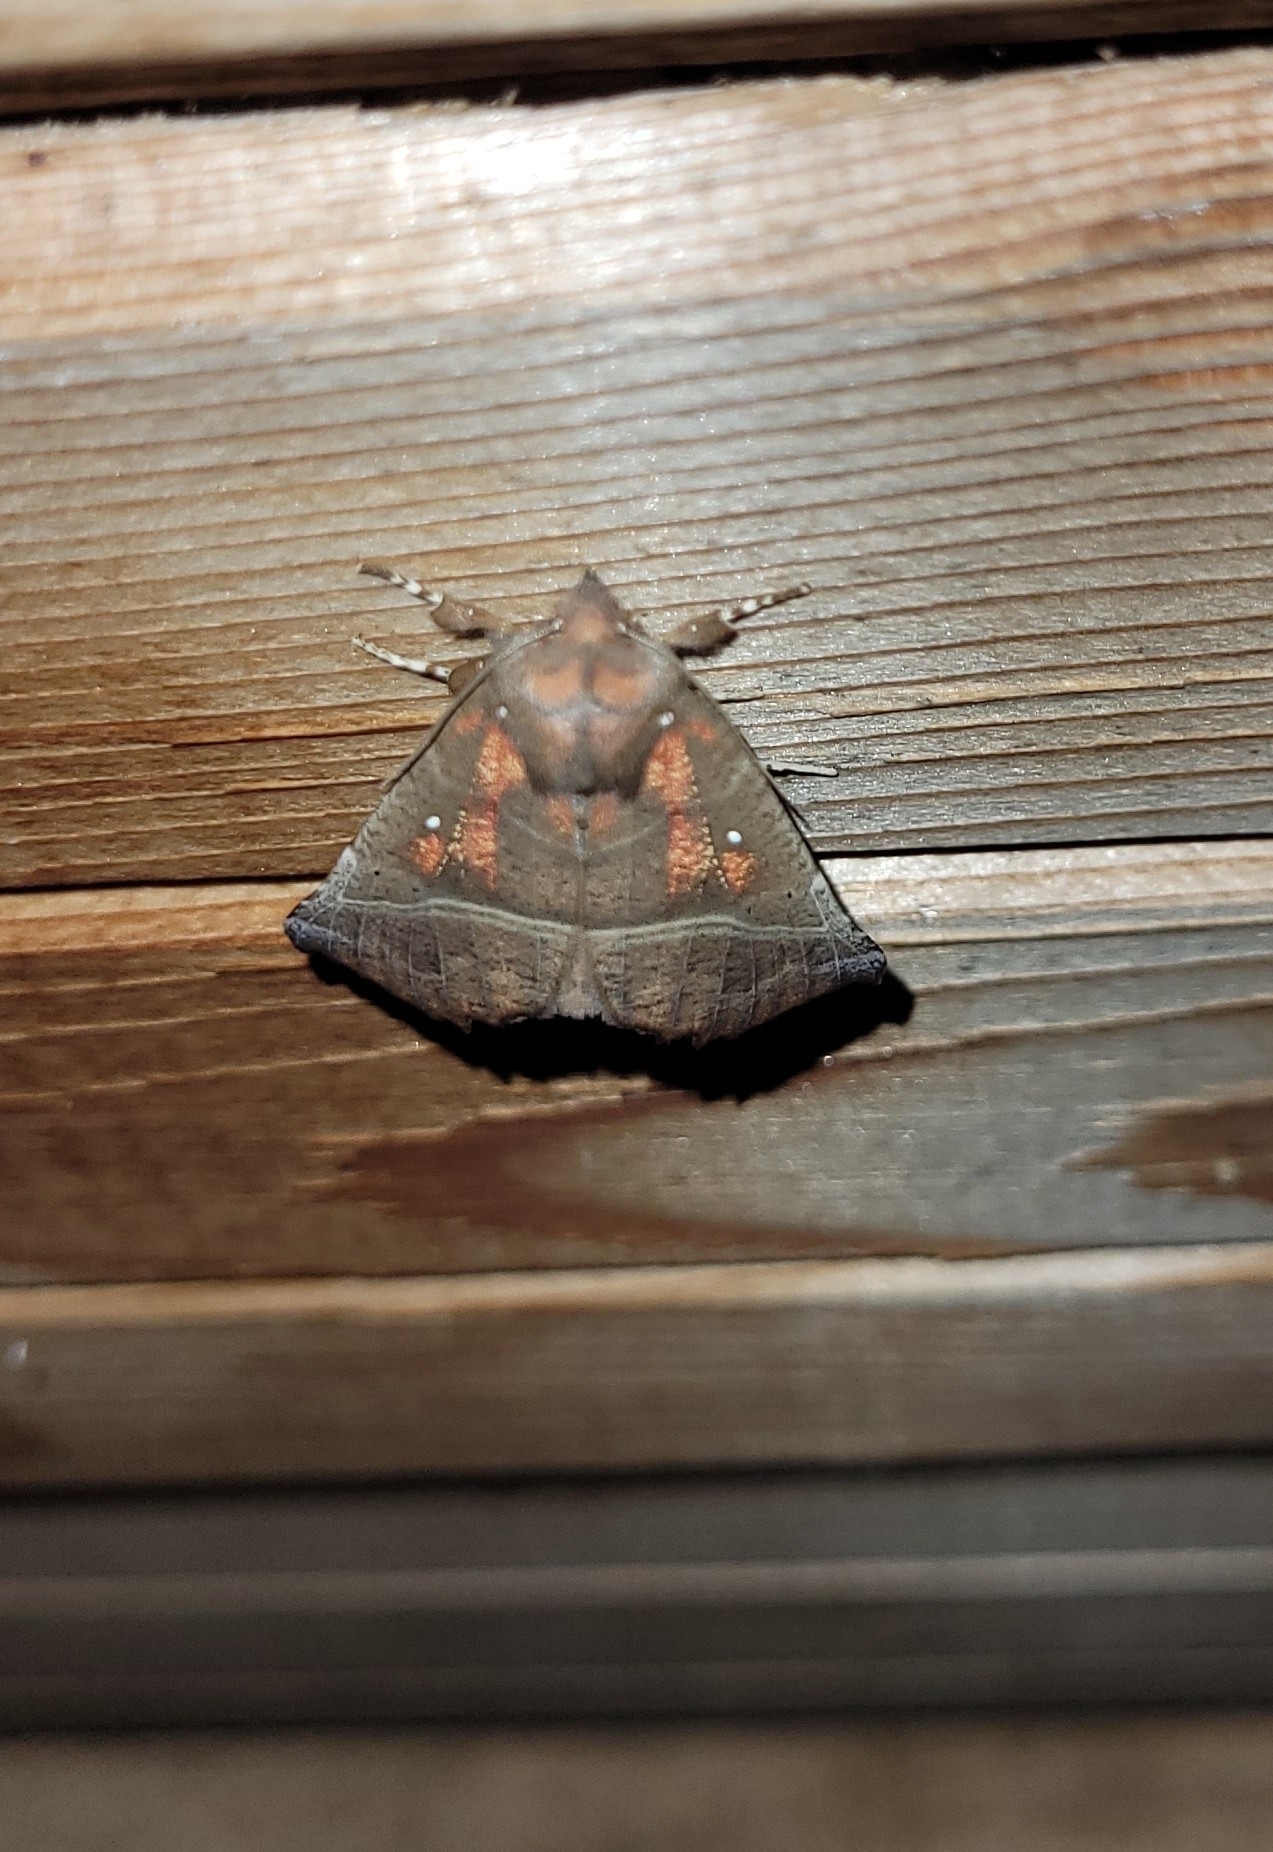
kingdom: Animalia
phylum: Arthropoda
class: Insecta
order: Lepidoptera
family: Erebidae
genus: Scoliopteryx
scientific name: Scoliopteryx libatrix
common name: Herald
